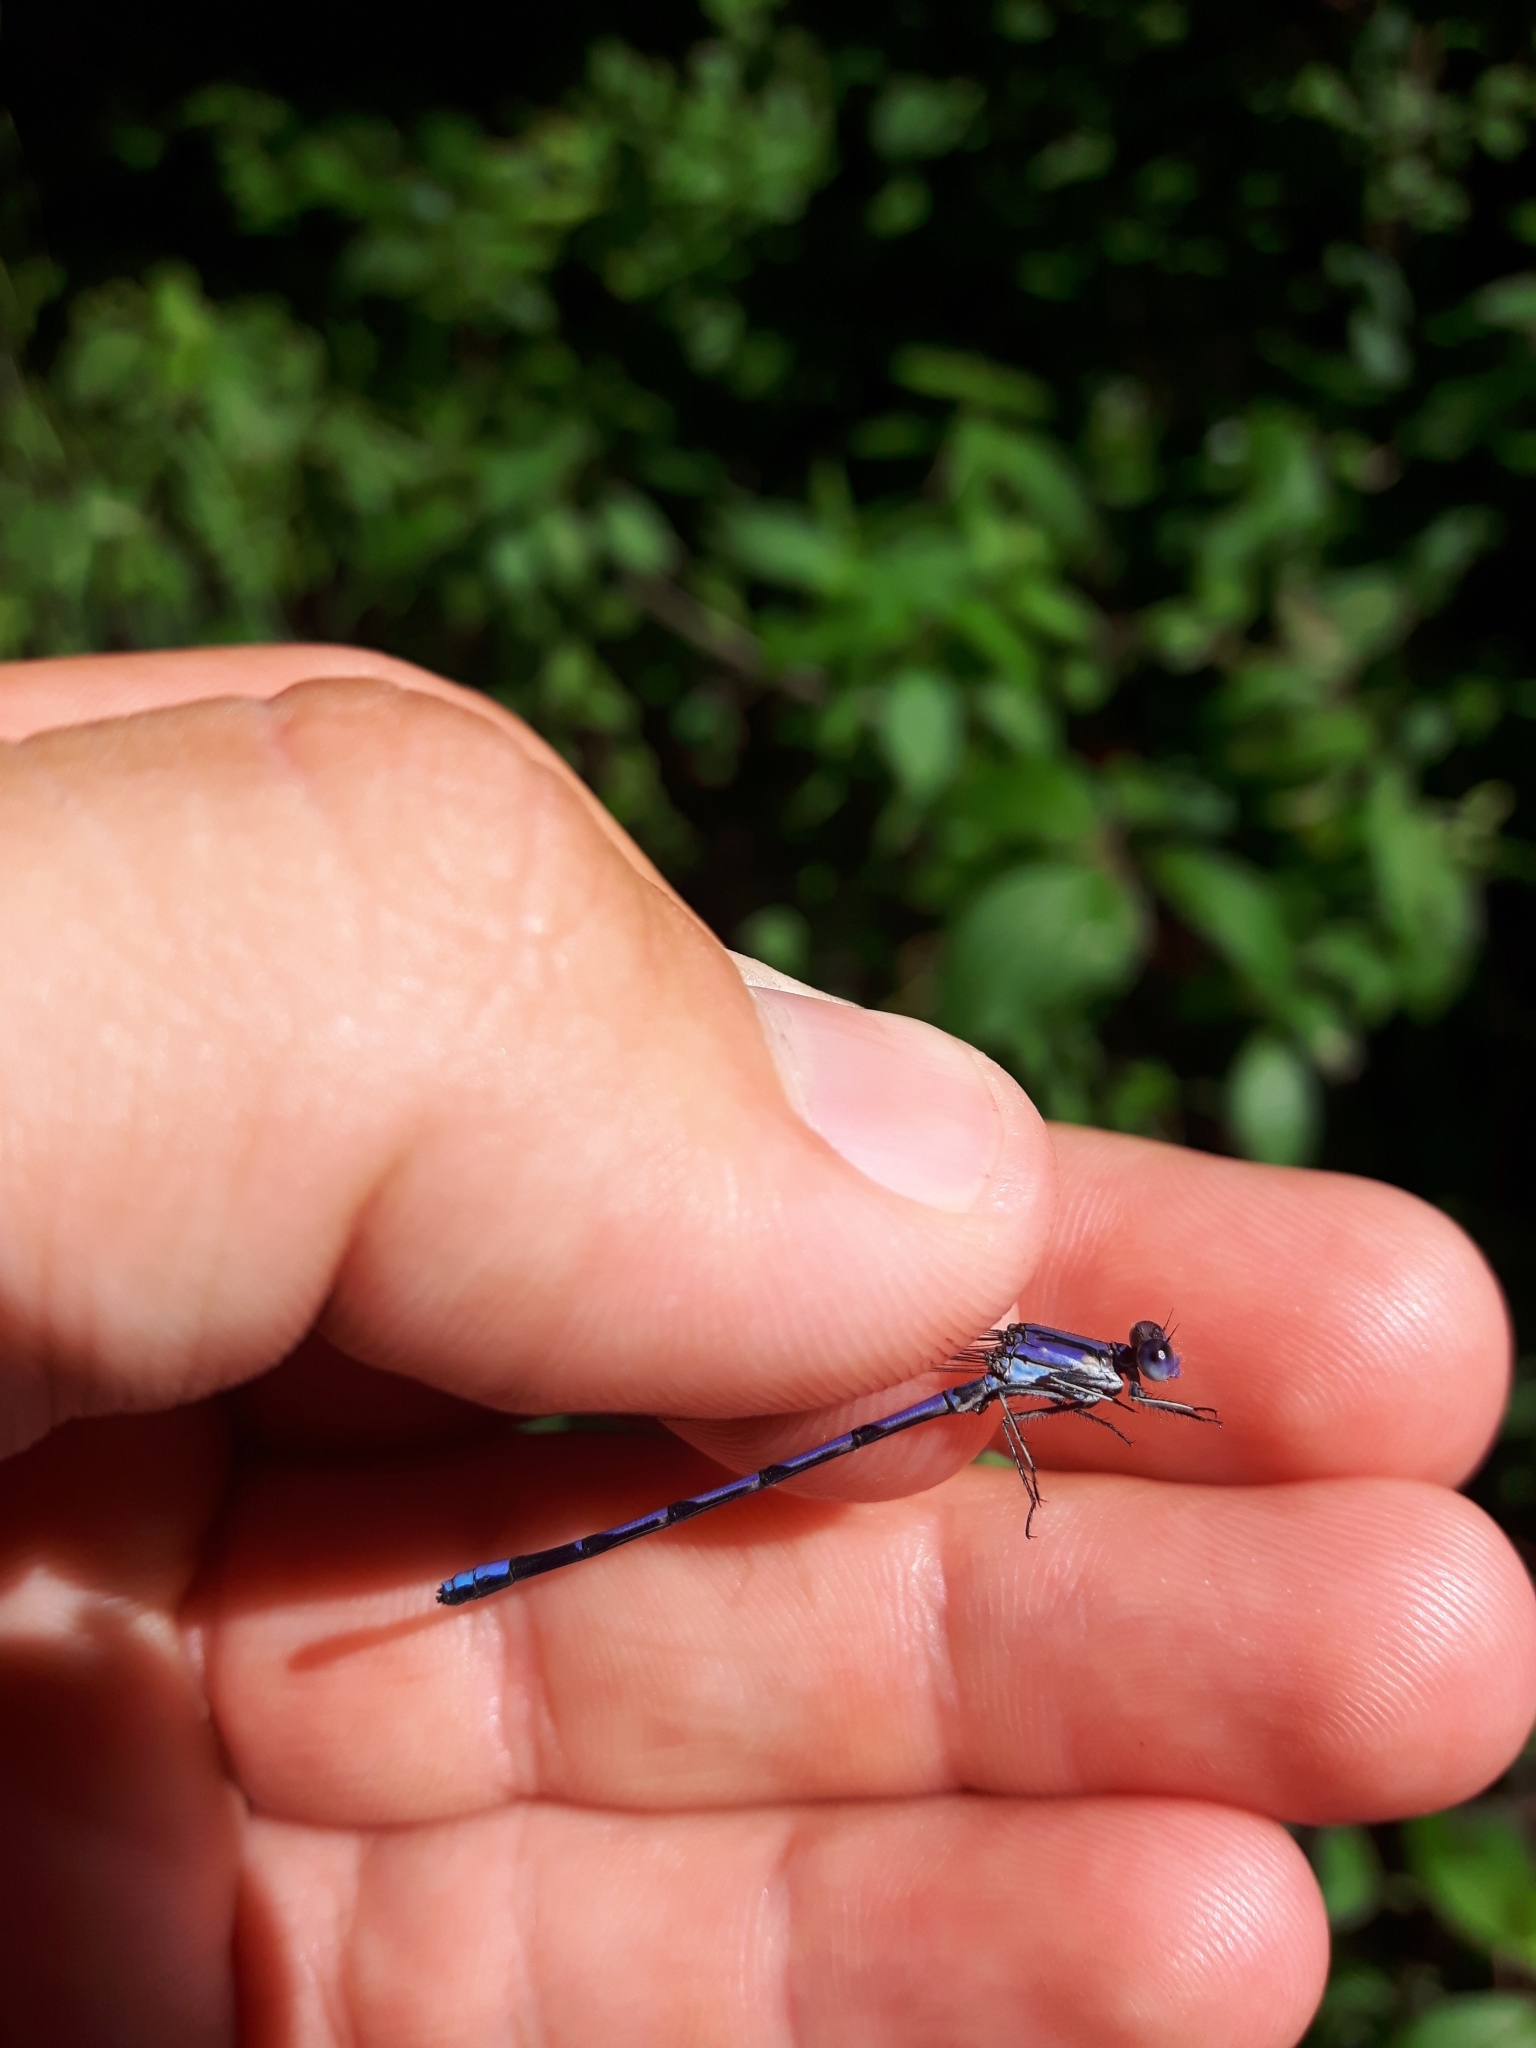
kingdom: Animalia
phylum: Arthropoda
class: Insecta
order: Odonata
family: Coenagrionidae
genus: Argia
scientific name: Argia fumipennis
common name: Variable dancer
